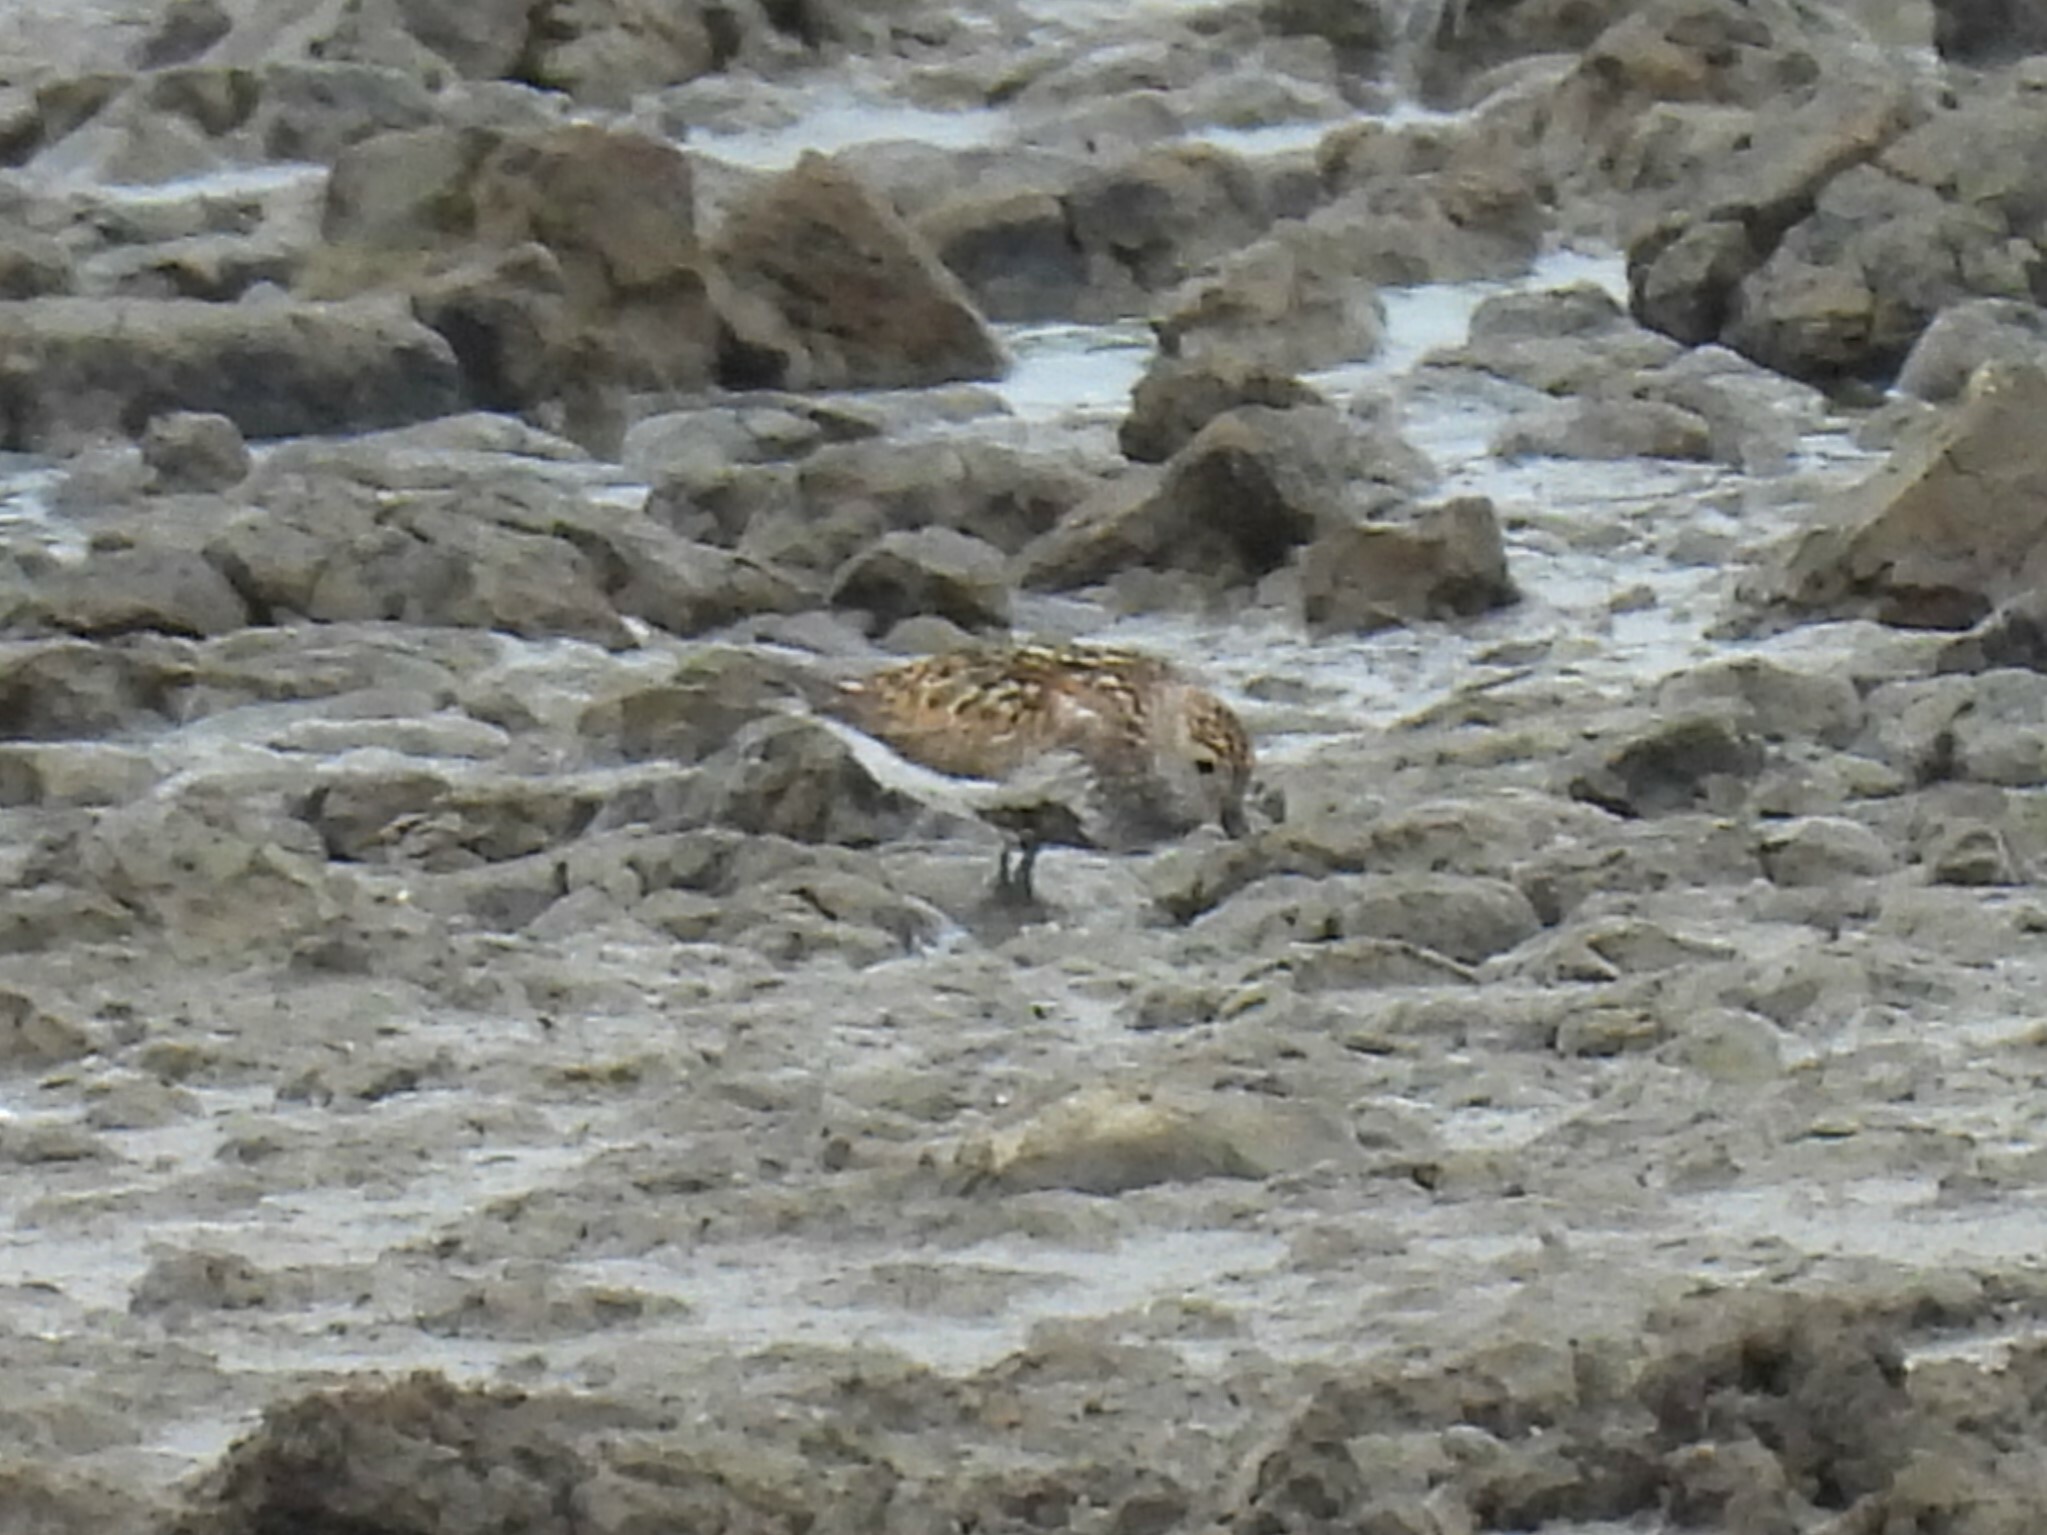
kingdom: Animalia
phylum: Chordata
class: Aves
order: Charadriiformes
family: Scolopacidae
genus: Calidris
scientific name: Calidris alpina
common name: Dunlin
